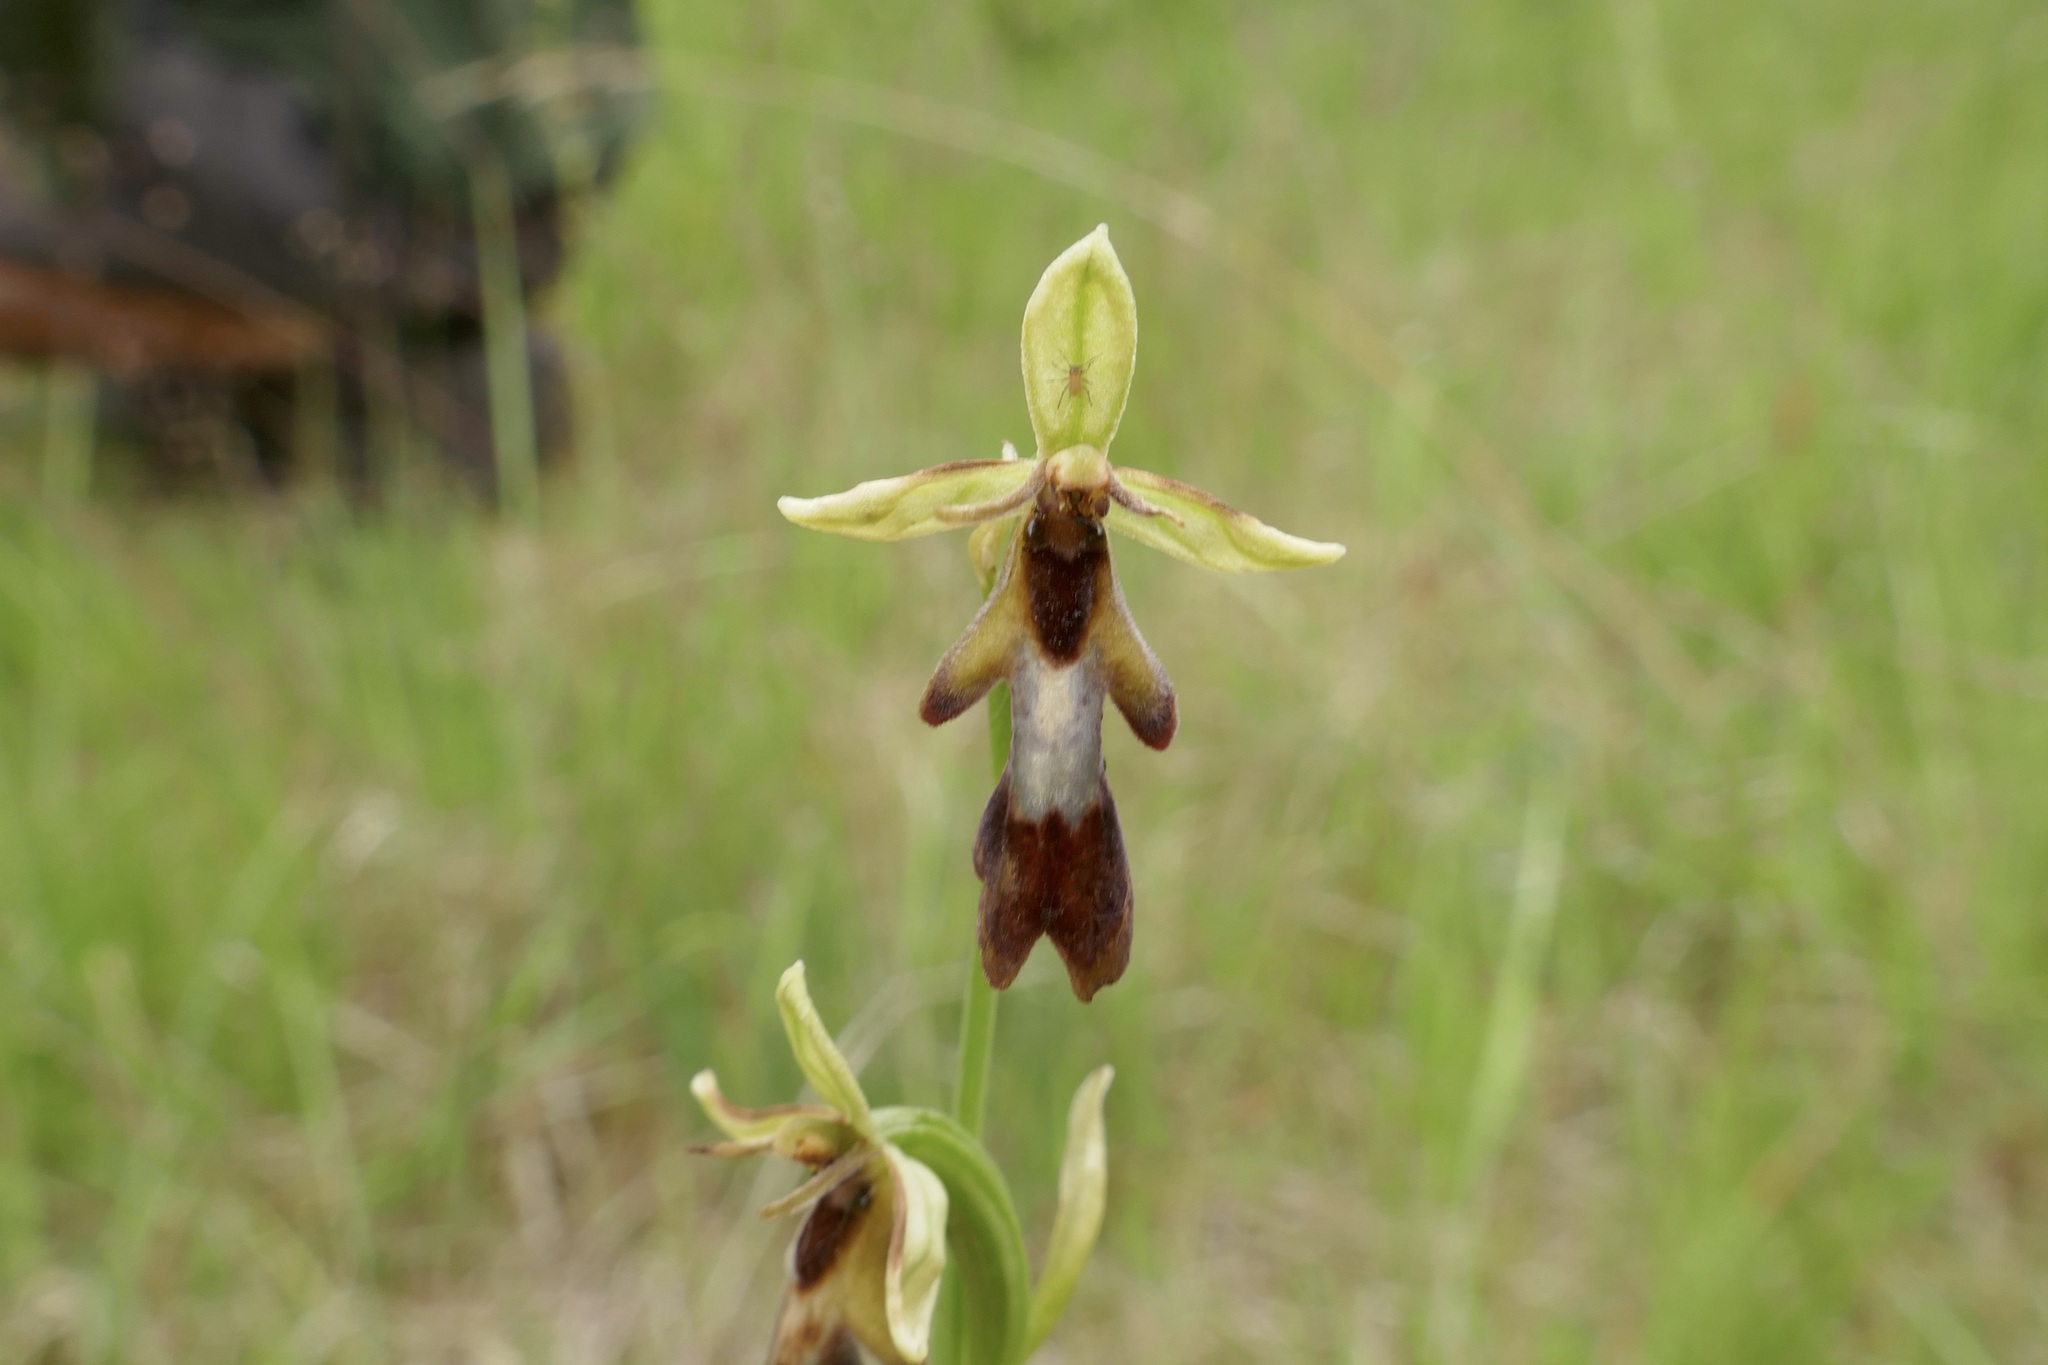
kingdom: Plantae
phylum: Tracheophyta
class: Liliopsida
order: Asparagales
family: Orchidaceae
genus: Ophrys
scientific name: Ophrys insectifera
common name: Fly orchid
